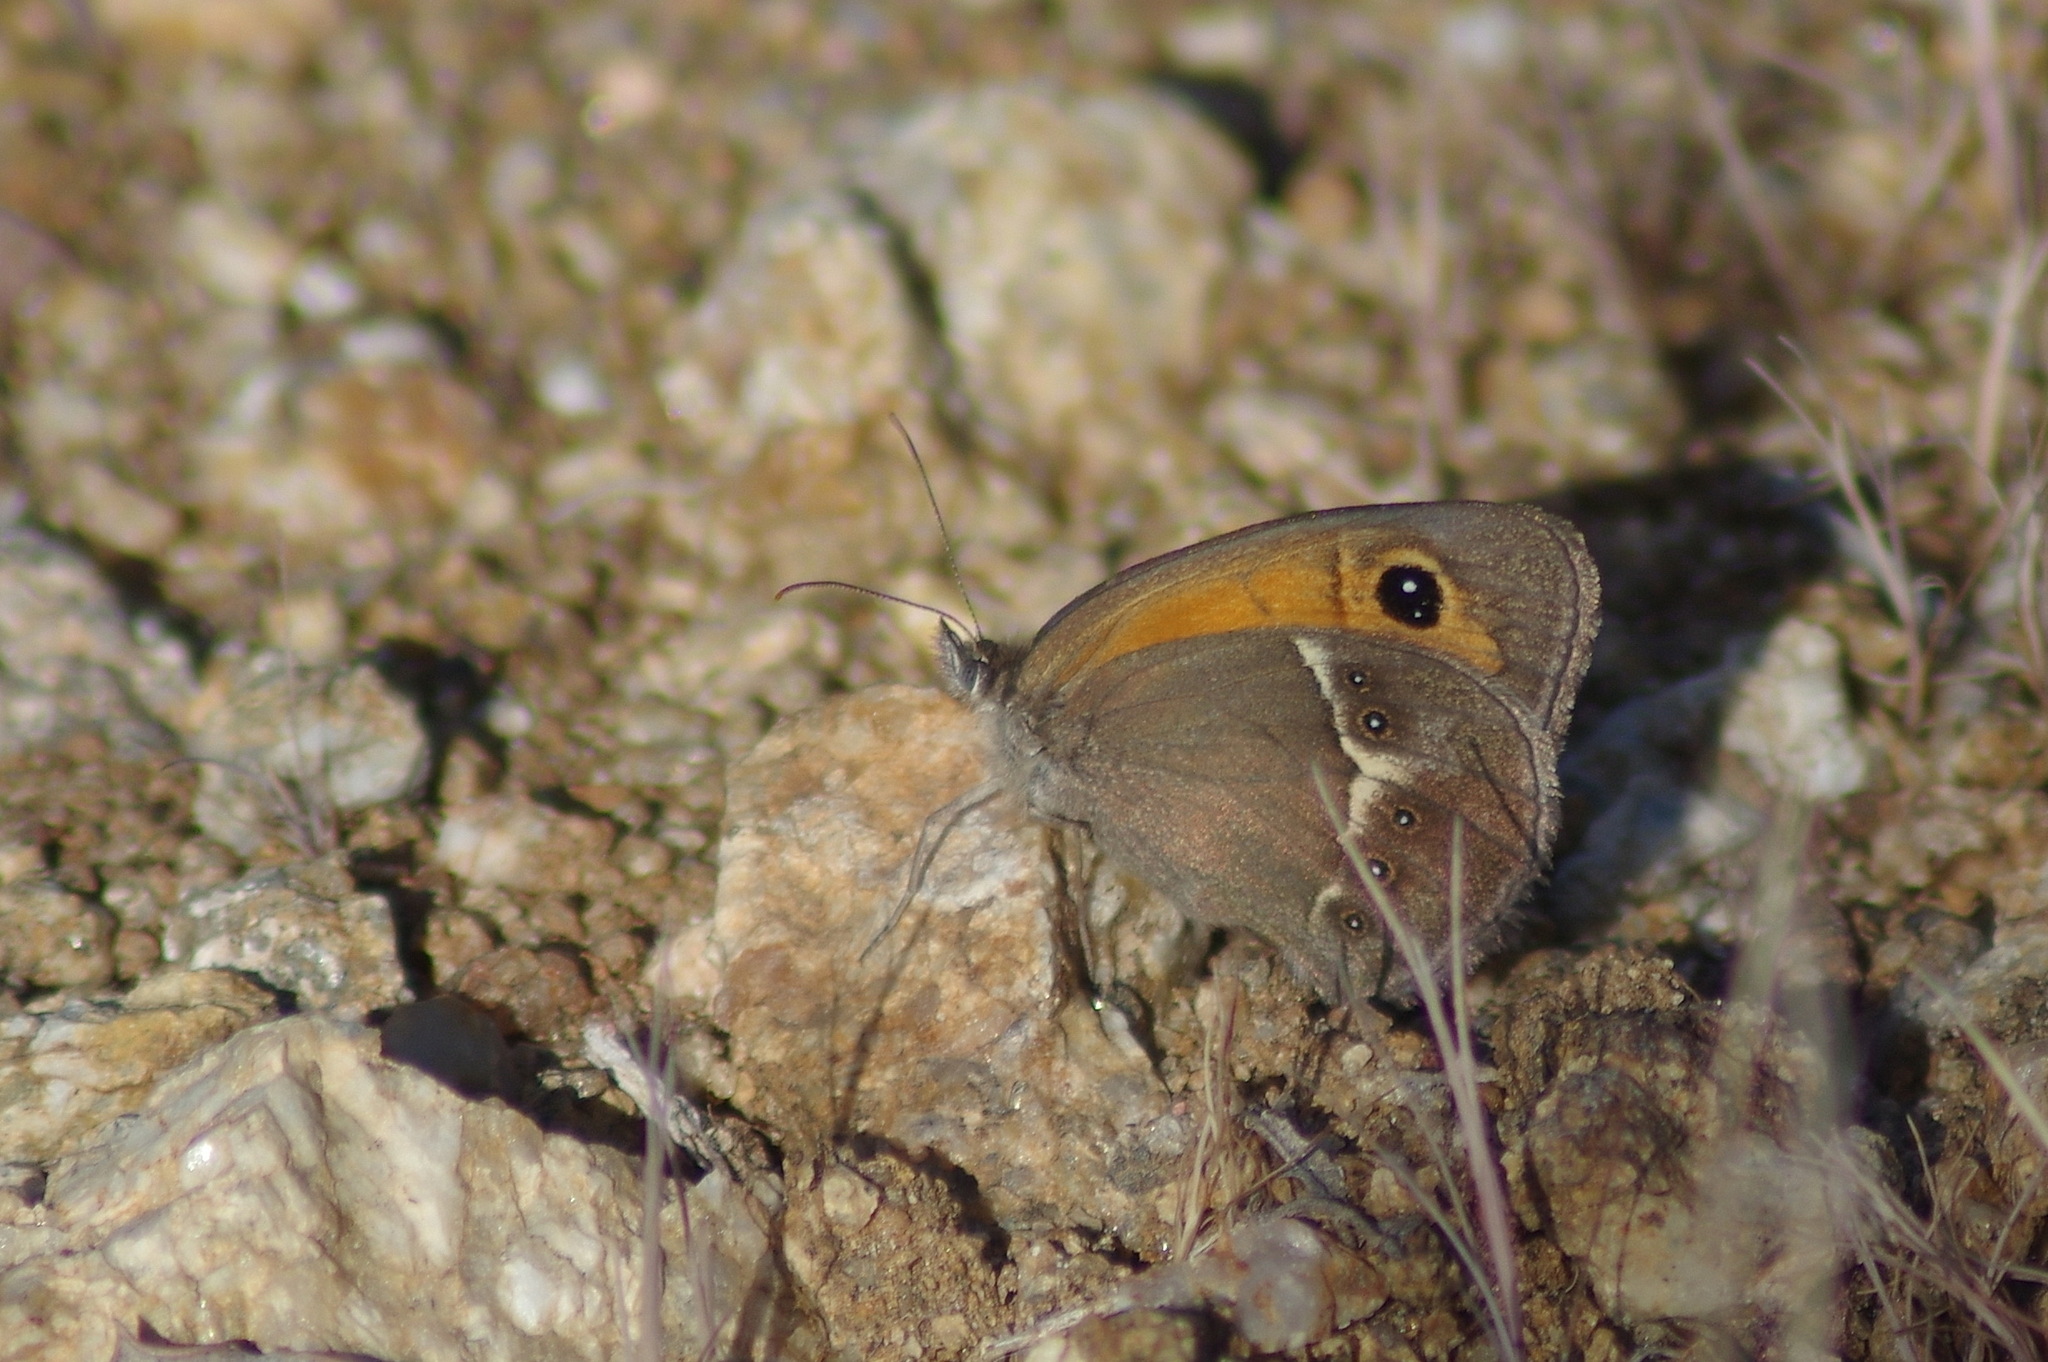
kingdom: Animalia
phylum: Arthropoda
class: Insecta
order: Lepidoptera
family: Nymphalidae
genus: Pyronia
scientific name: Pyronia bathseba
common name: Spanish gatekeeper
